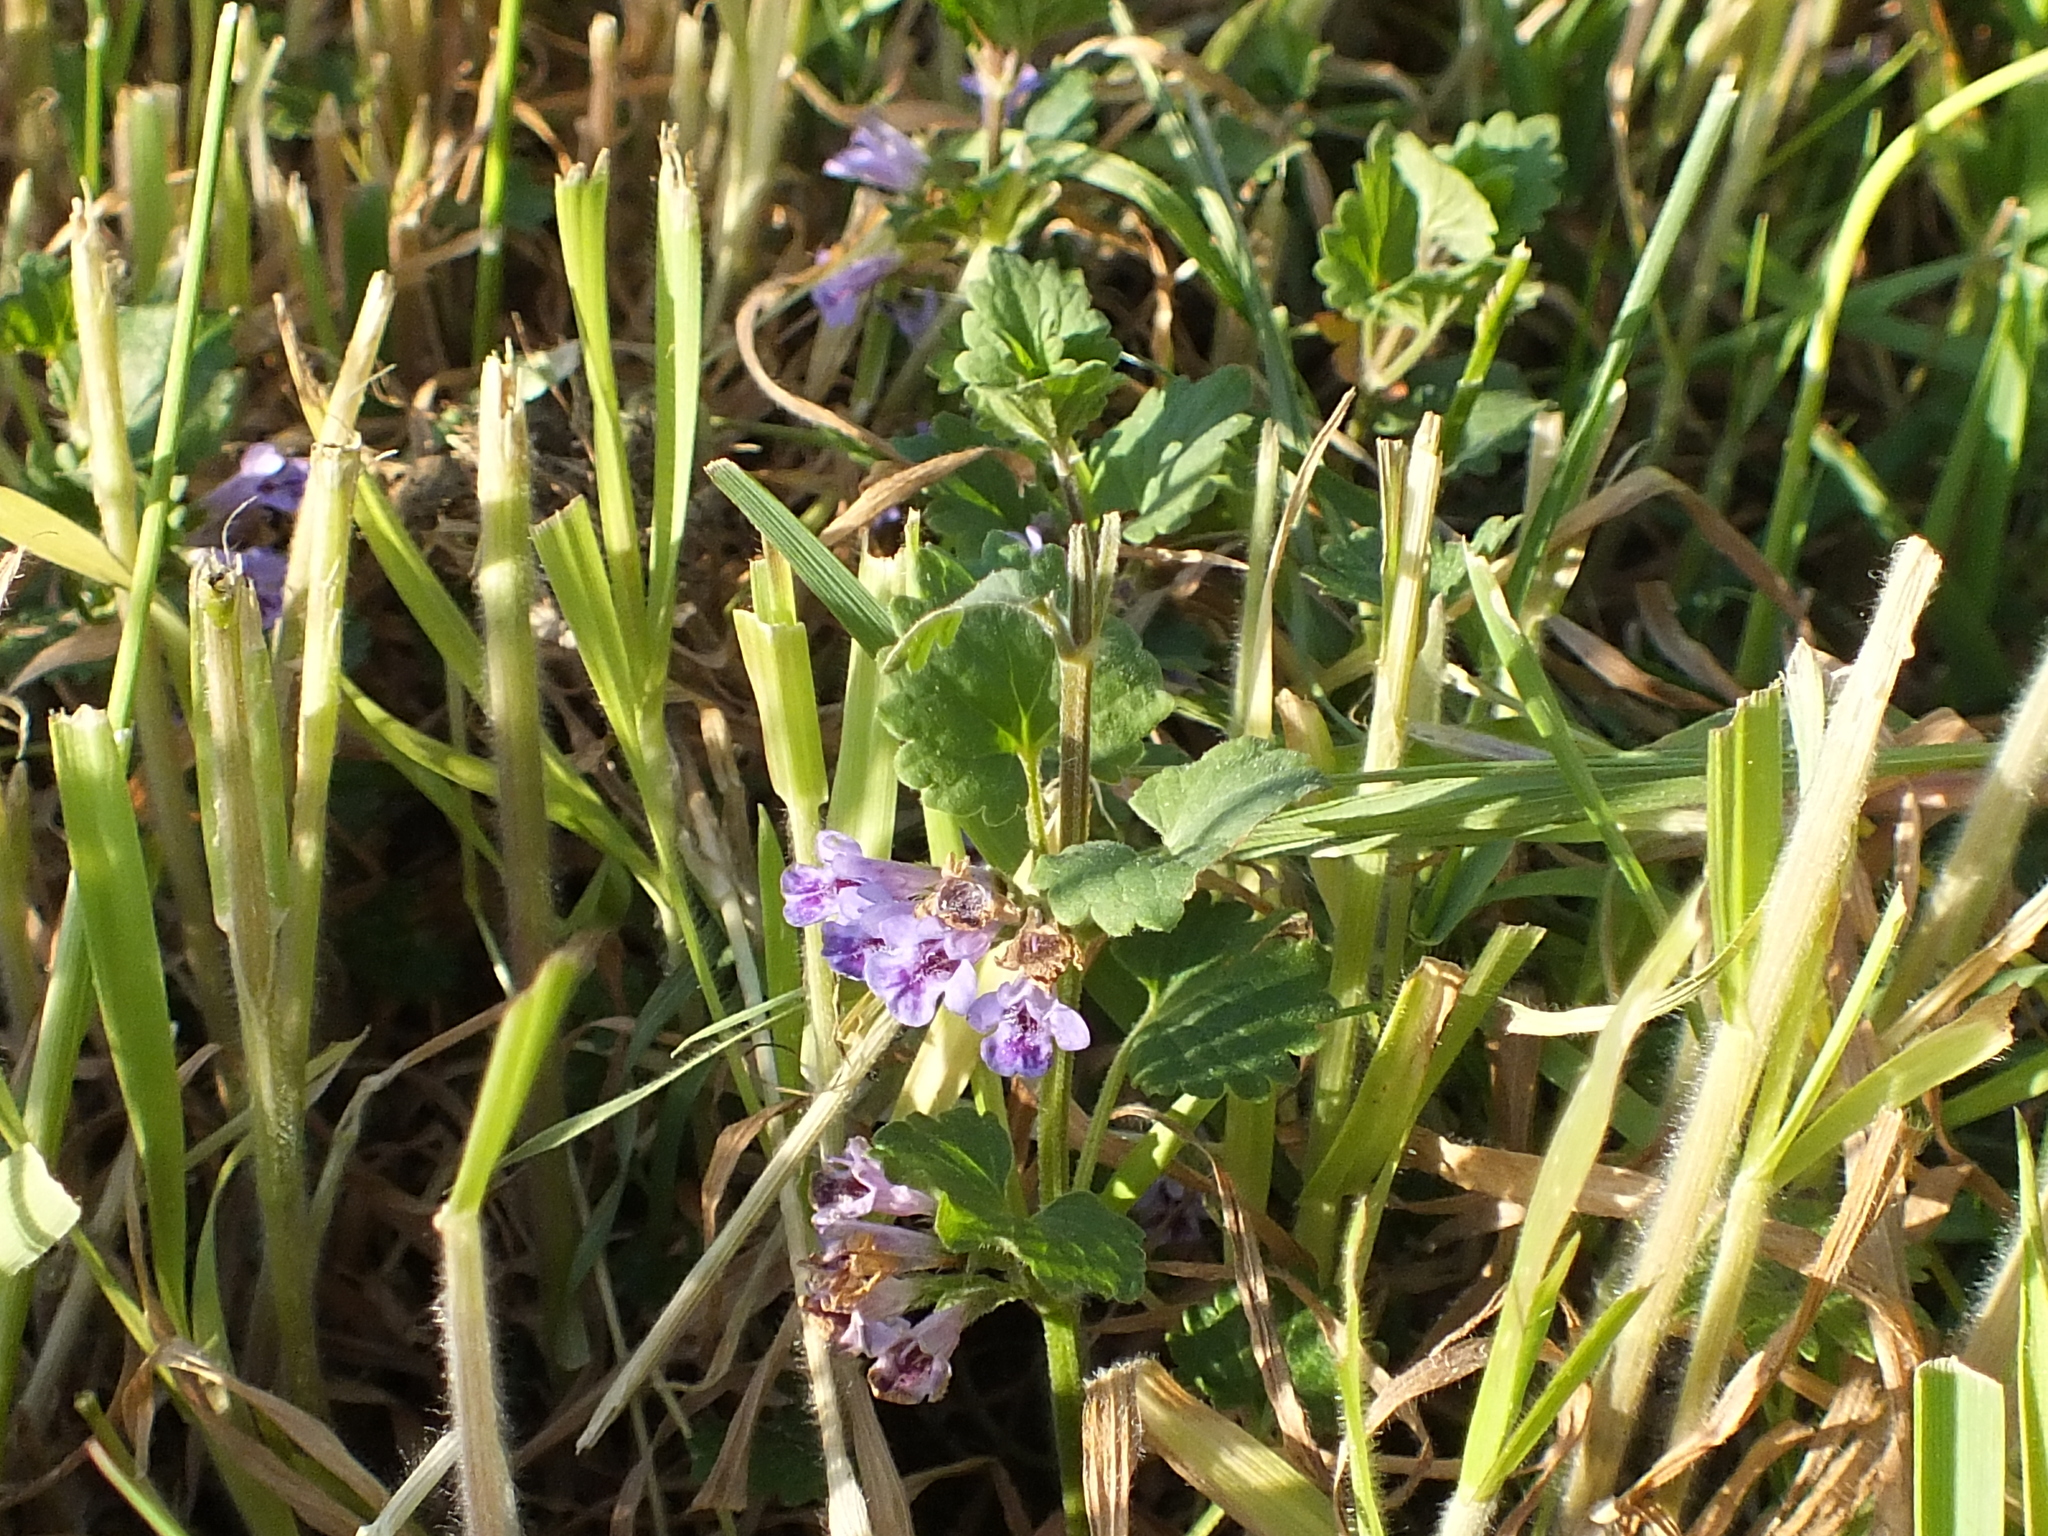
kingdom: Plantae
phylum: Tracheophyta
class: Magnoliopsida
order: Lamiales
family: Lamiaceae
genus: Glechoma
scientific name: Glechoma hederacea
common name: Ground ivy
